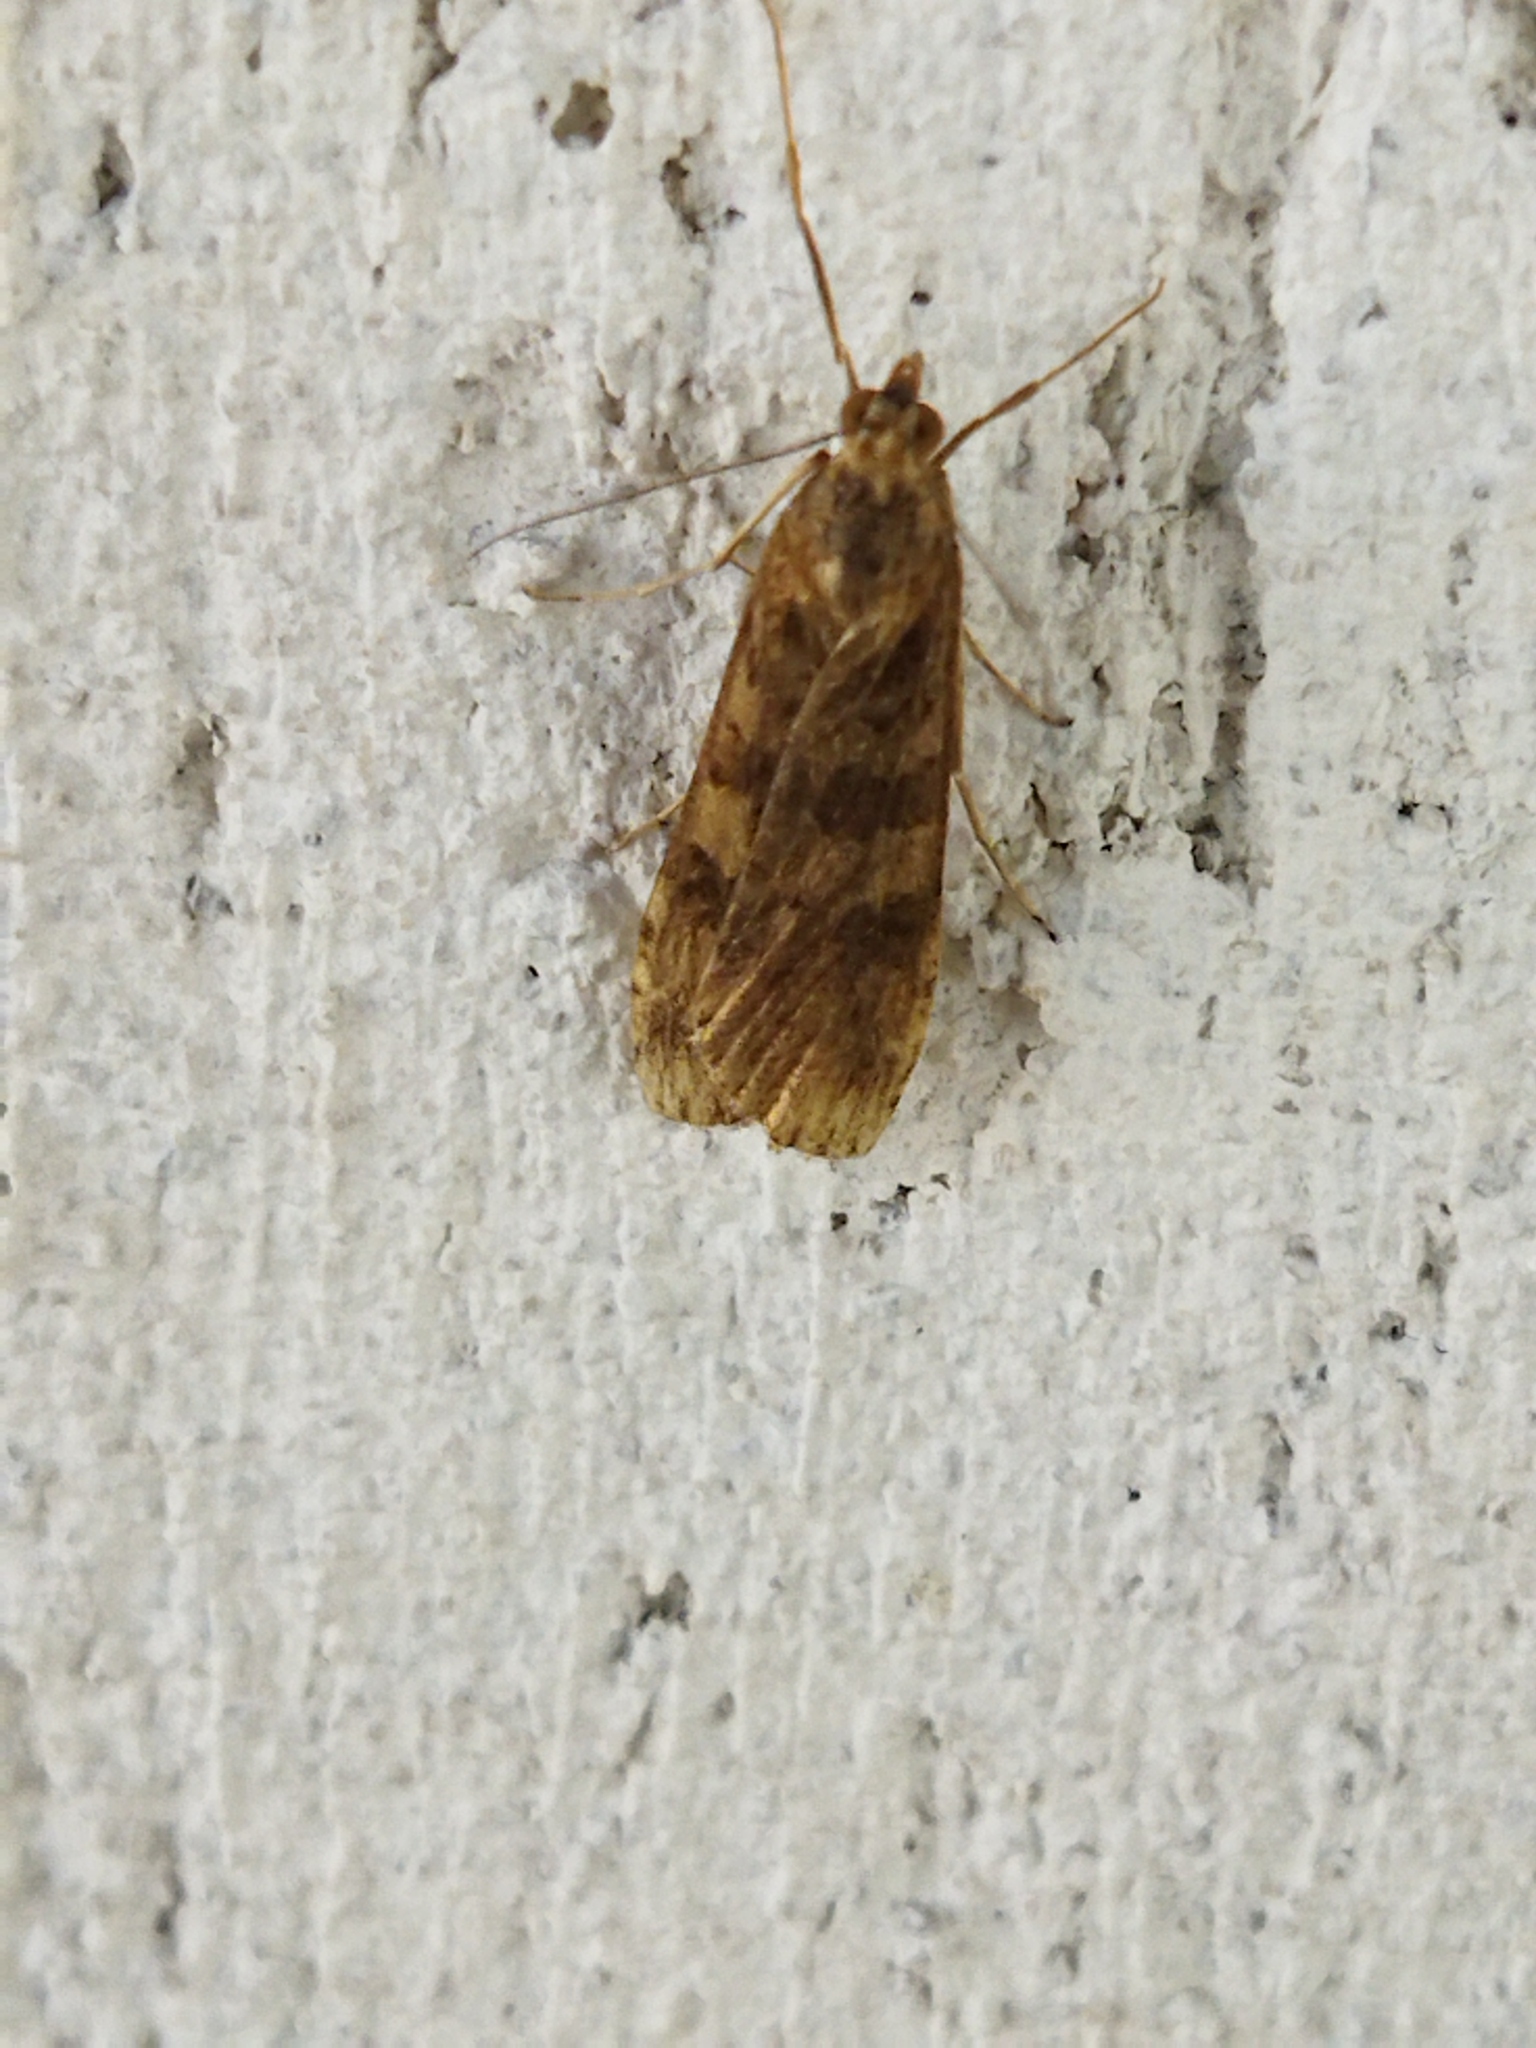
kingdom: Animalia
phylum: Arthropoda
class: Insecta
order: Lepidoptera
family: Crambidae
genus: Nomophila
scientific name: Nomophila noctuella
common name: Rush veneer
